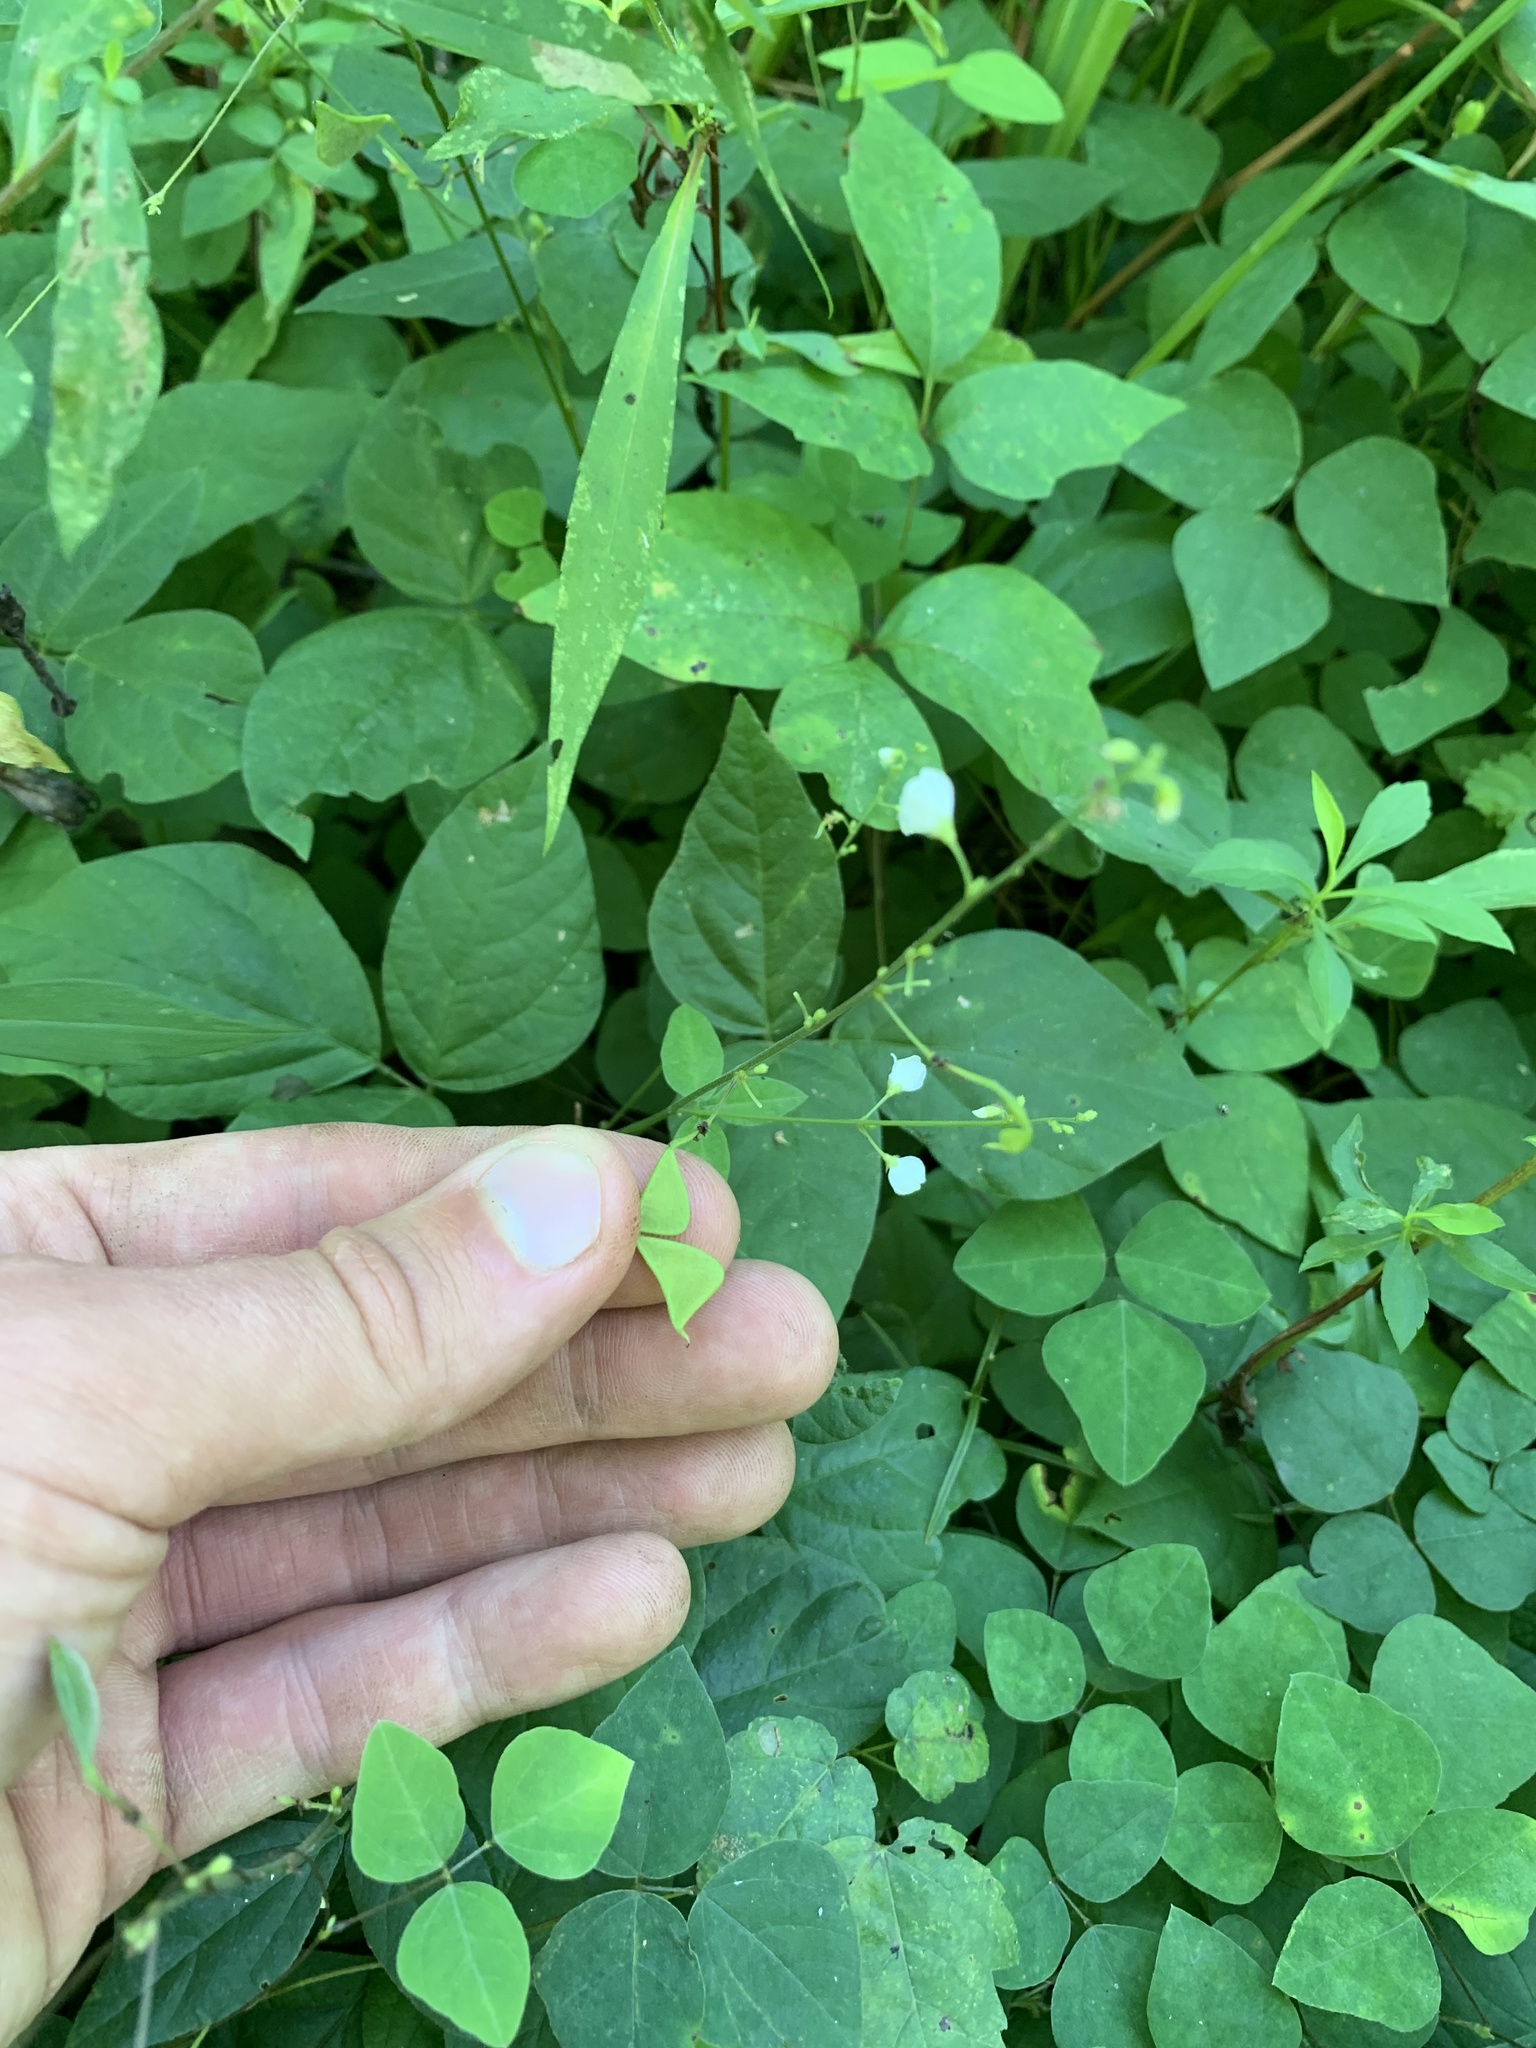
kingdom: Plantae
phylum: Tracheophyta
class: Magnoliopsida
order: Fabales
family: Fabaceae
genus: Hylodesmum
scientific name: Hylodesmum pauciflorum
